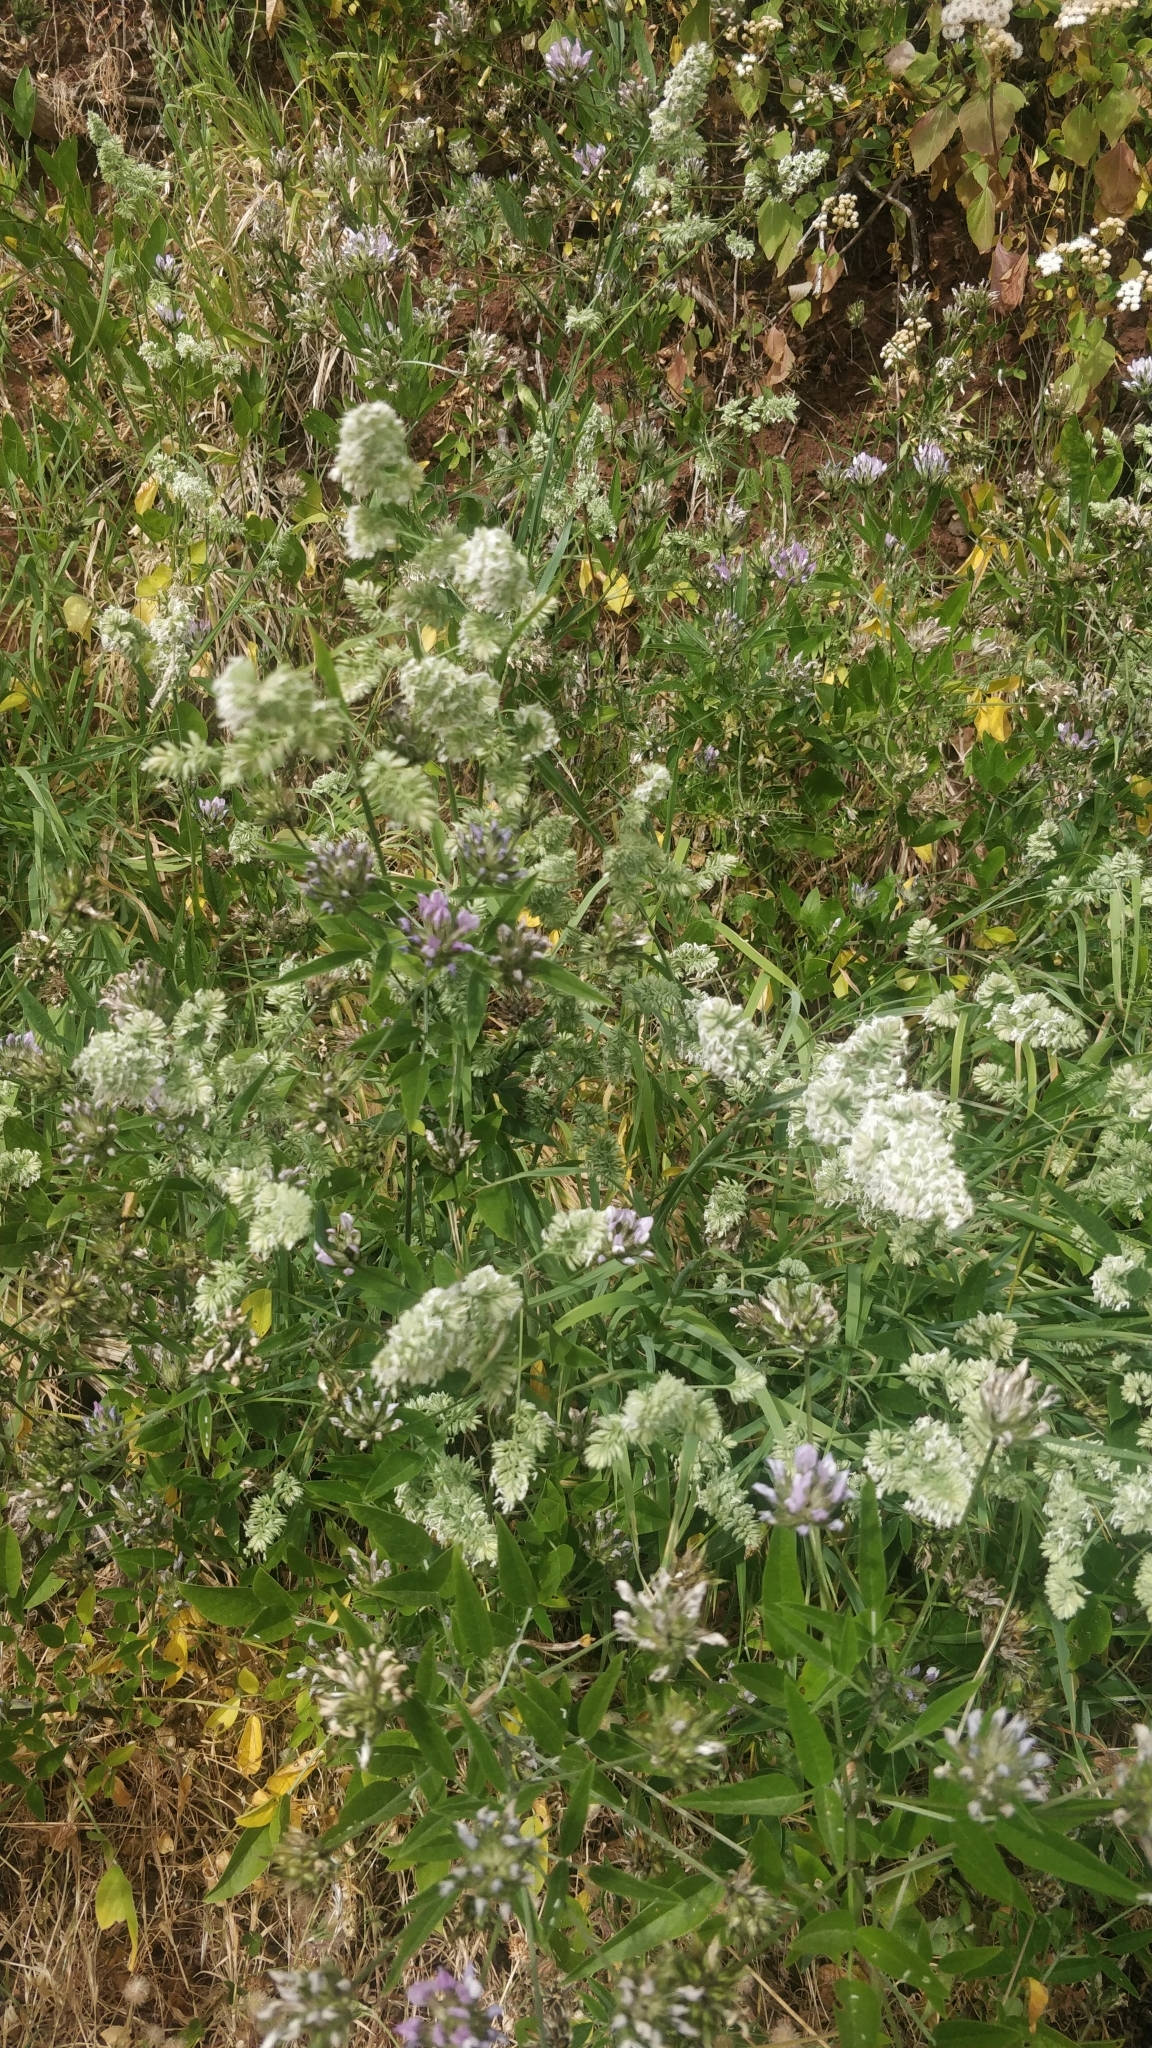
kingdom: Plantae
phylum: Tracheophyta
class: Liliopsida
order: Poales
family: Poaceae
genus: Dactylis
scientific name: Dactylis glomerata
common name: Orchardgrass
